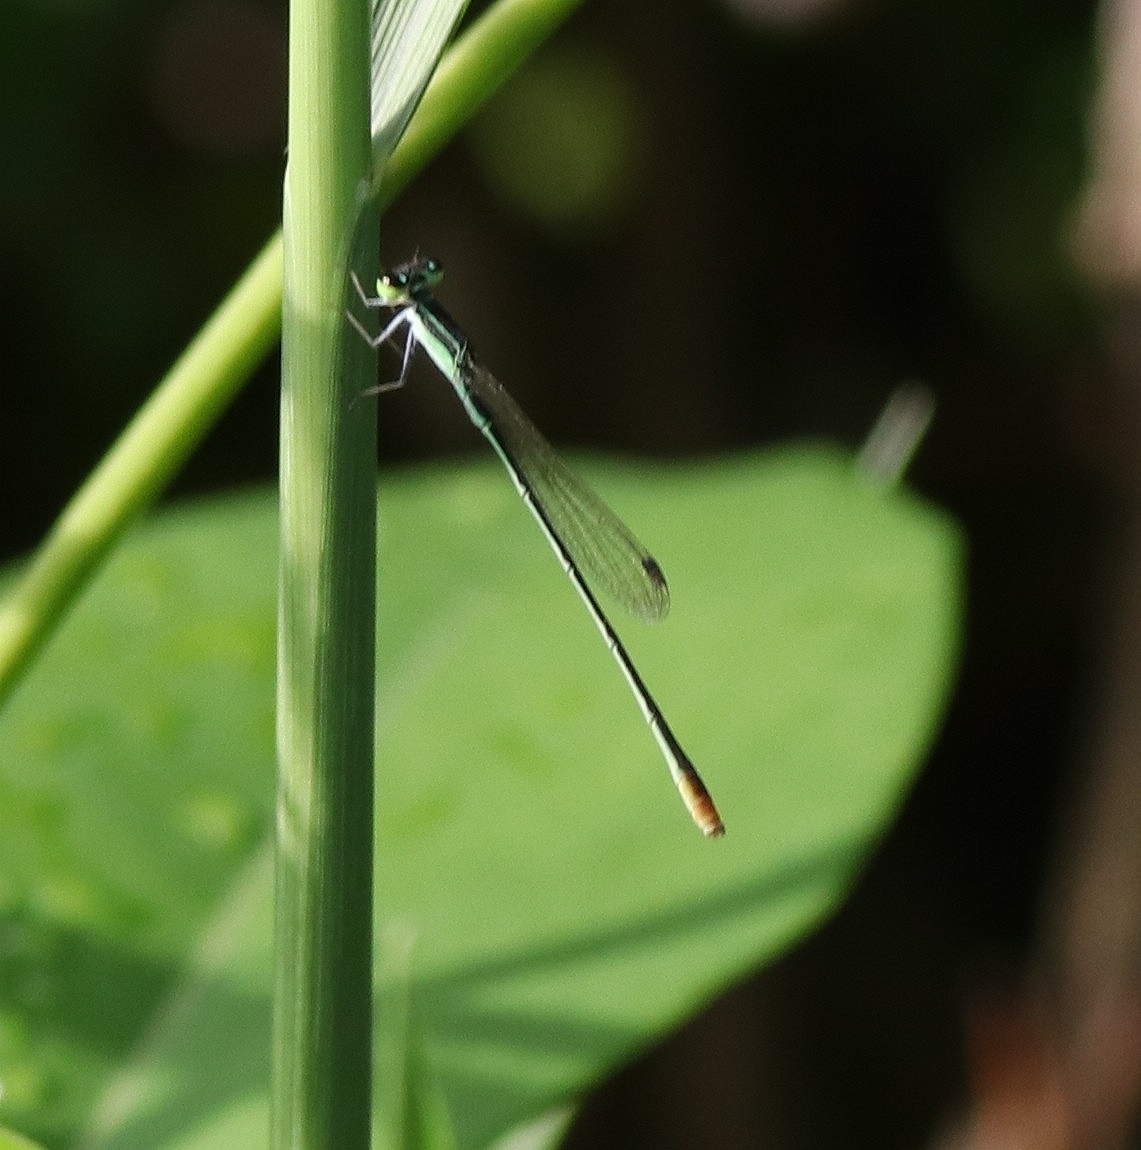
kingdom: Animalia
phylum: Arthropoda
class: Insecta
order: Odonata
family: Coenagrionidae
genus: Agriocnemis
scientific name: Agriocnemis pygmaea
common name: Pygmy wisp
